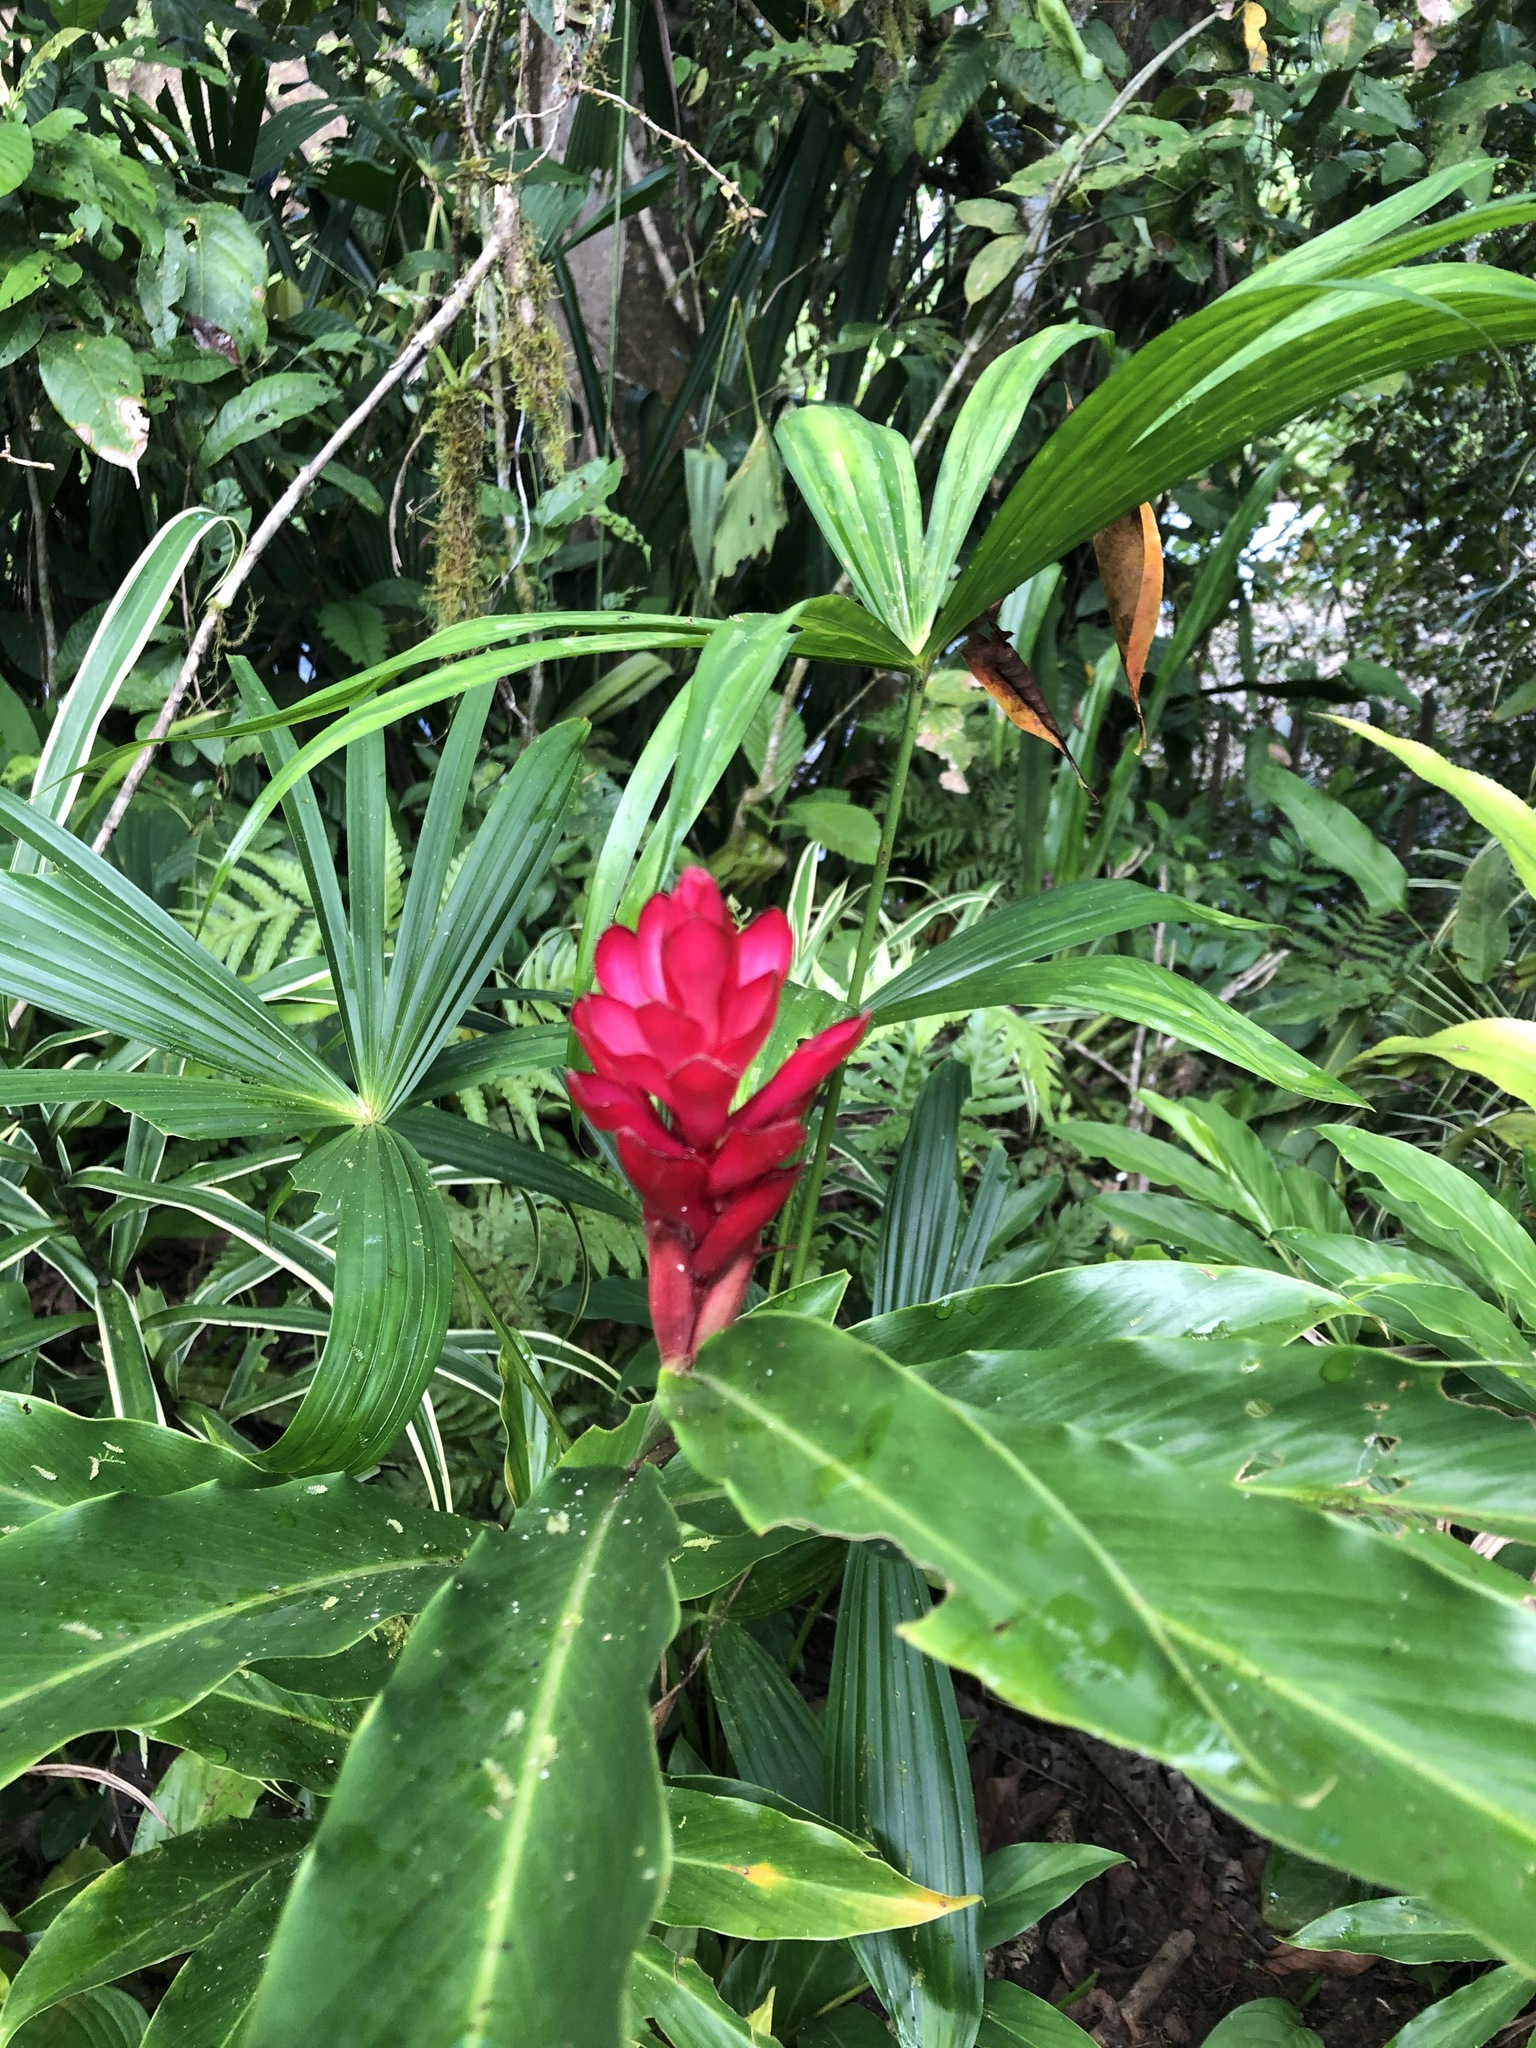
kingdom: Plantae
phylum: Tracheophyta
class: Liliopsida
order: Zingiberales
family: Zingiberaceae
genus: Alpinia
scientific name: Alpinia purpurata
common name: Red ginger
